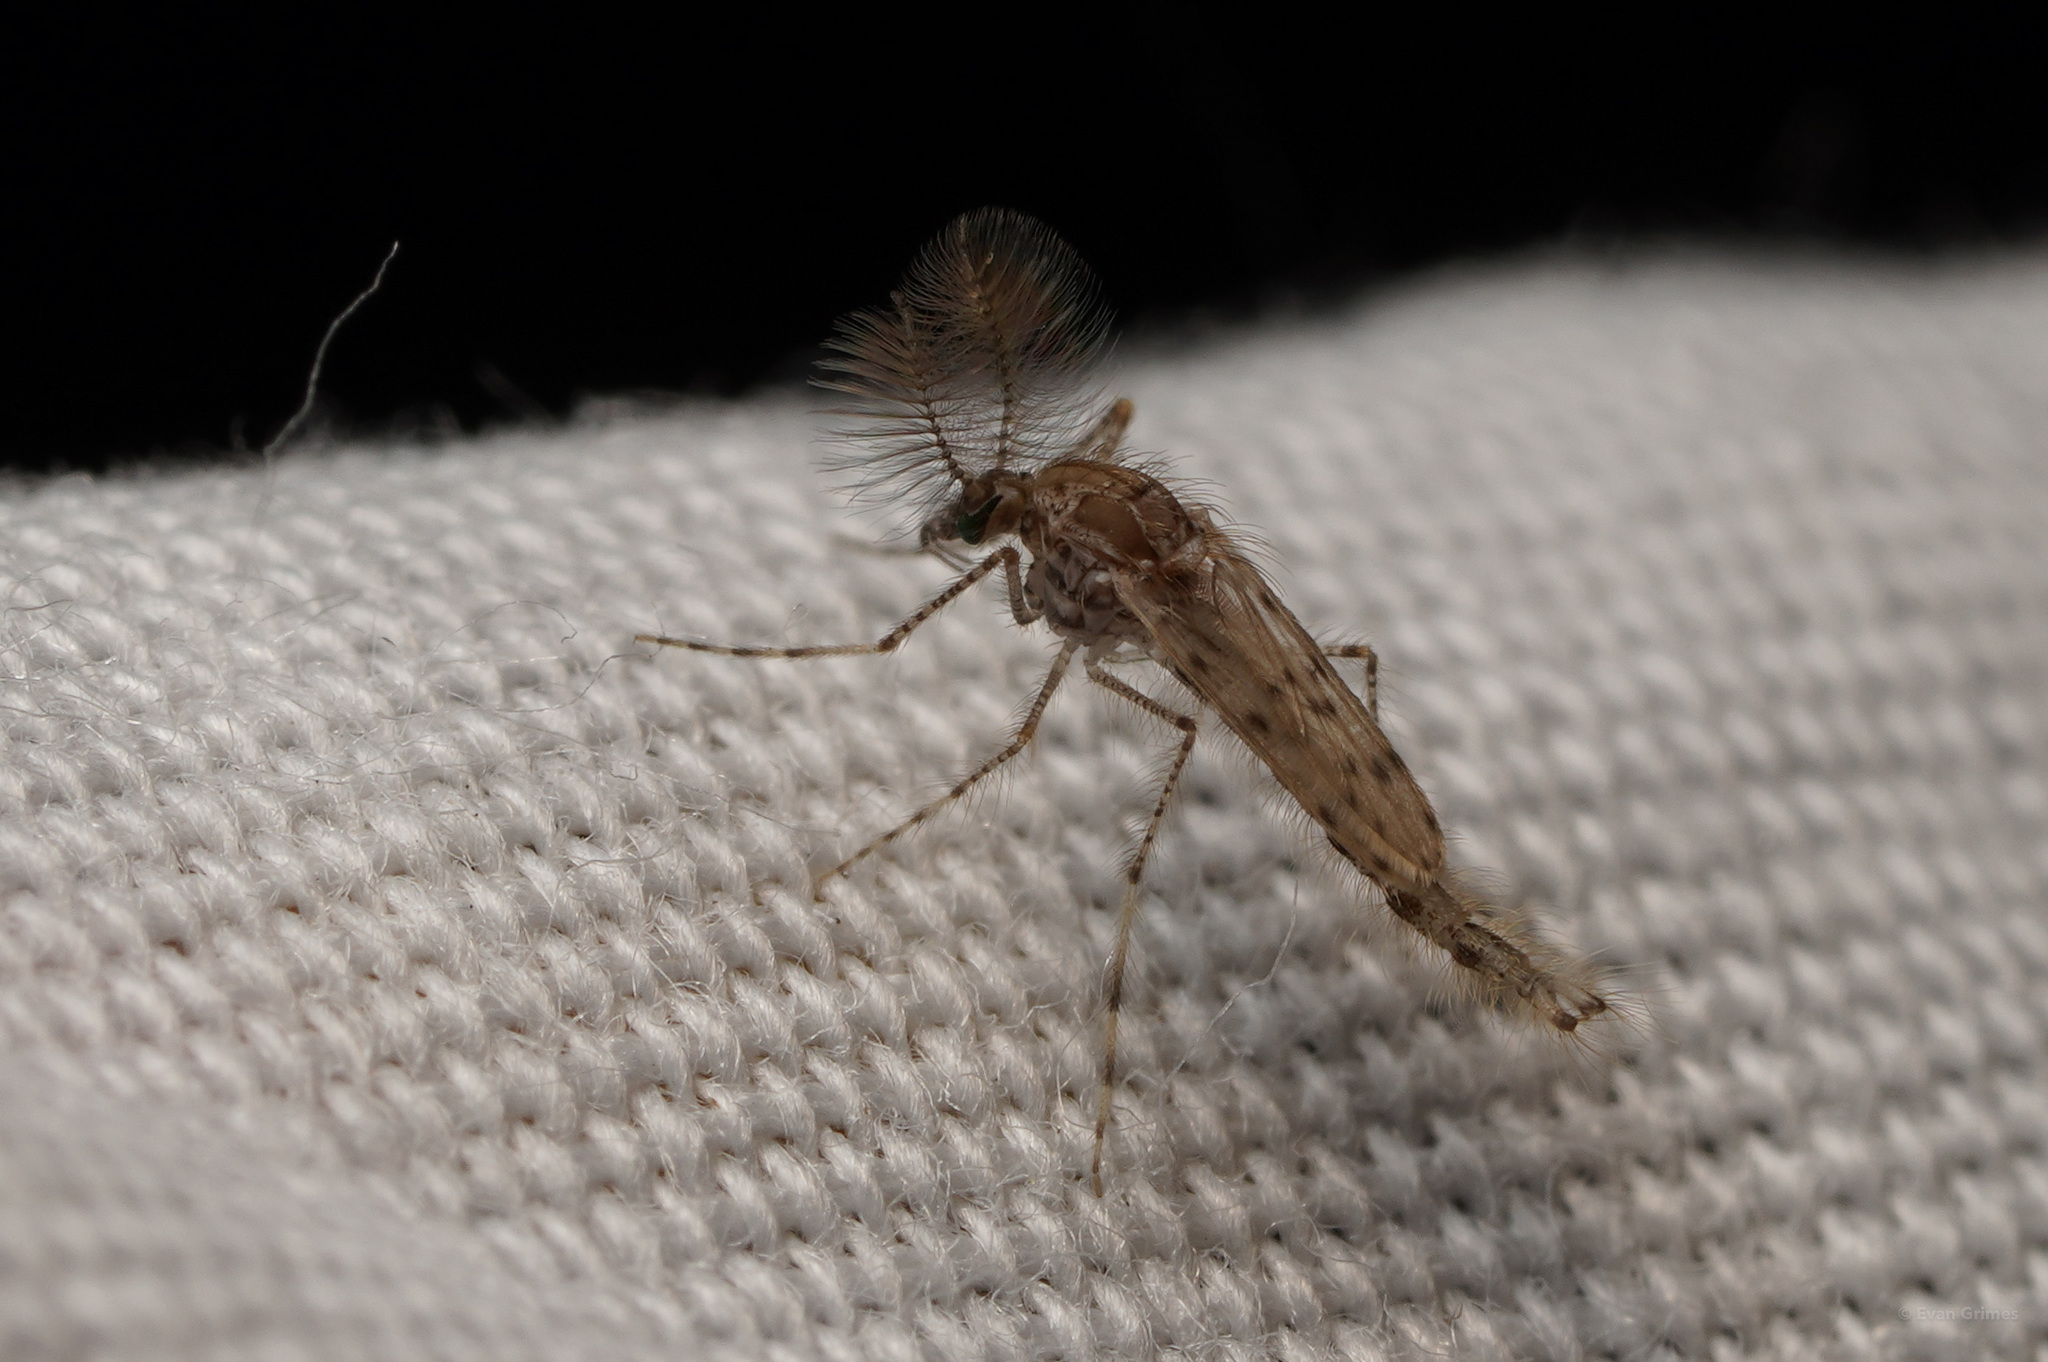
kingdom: Animalia
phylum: Arthropoda
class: Insecta
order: Diptera
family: Chaoboridae
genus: Chaoborus
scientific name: Chaoborus punctipennis
